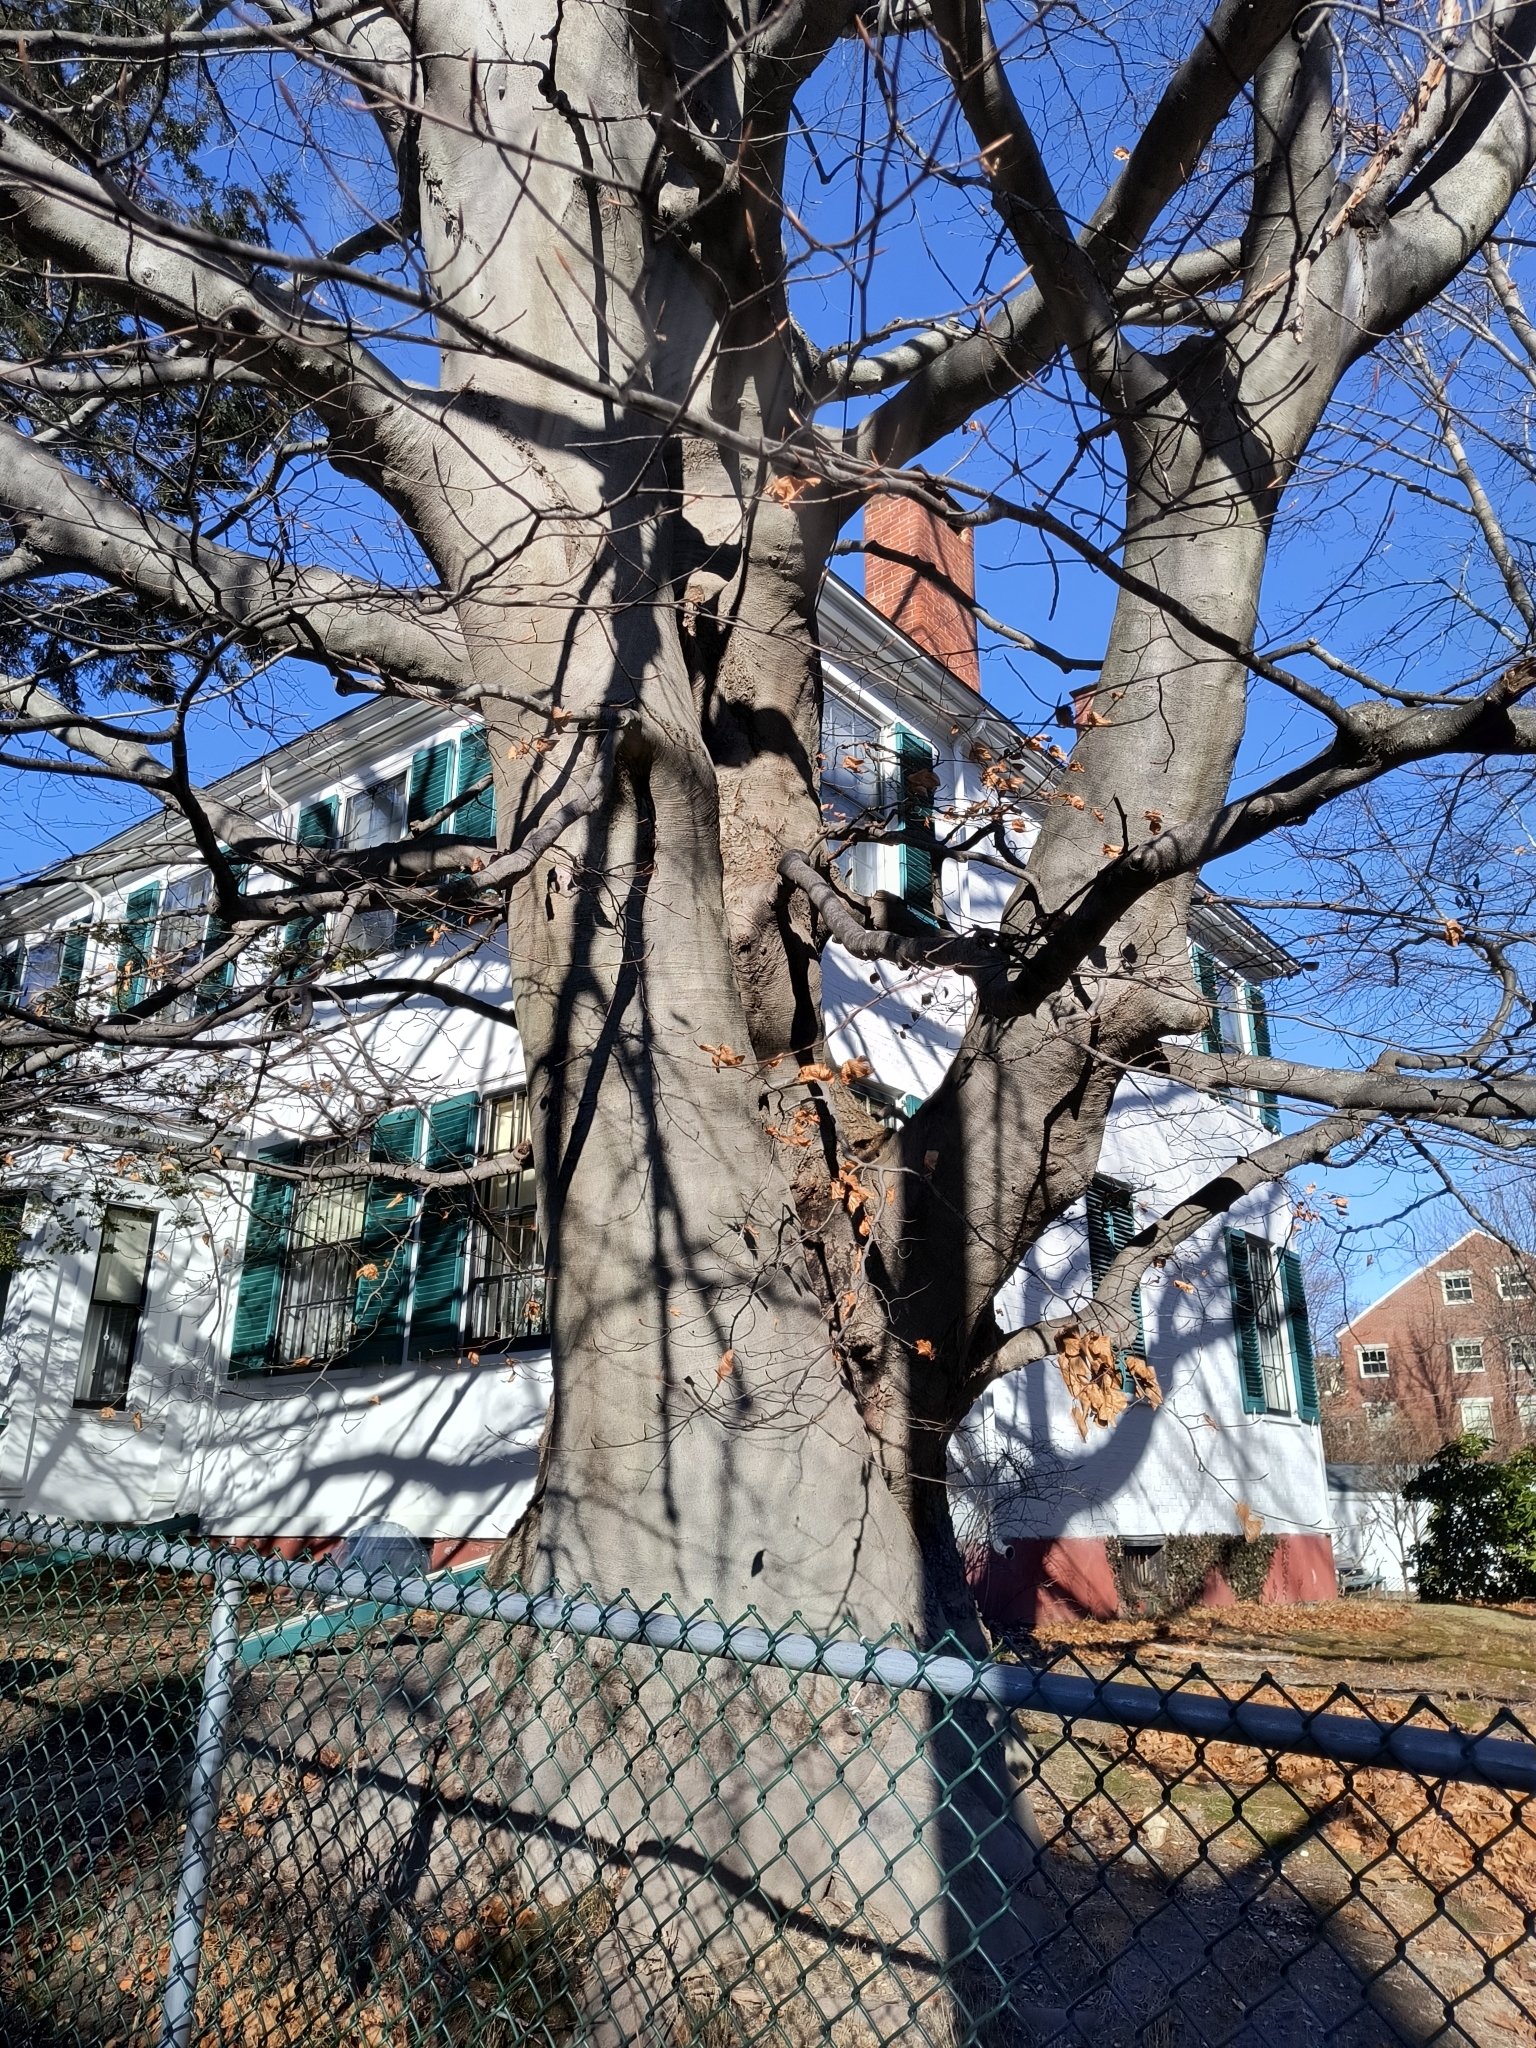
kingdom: Plantae
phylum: Tracheophyta
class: Magnoliopsida
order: Fagales
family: Fagaceae
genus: Fagus
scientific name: Fagus grandifolia
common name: American beech
